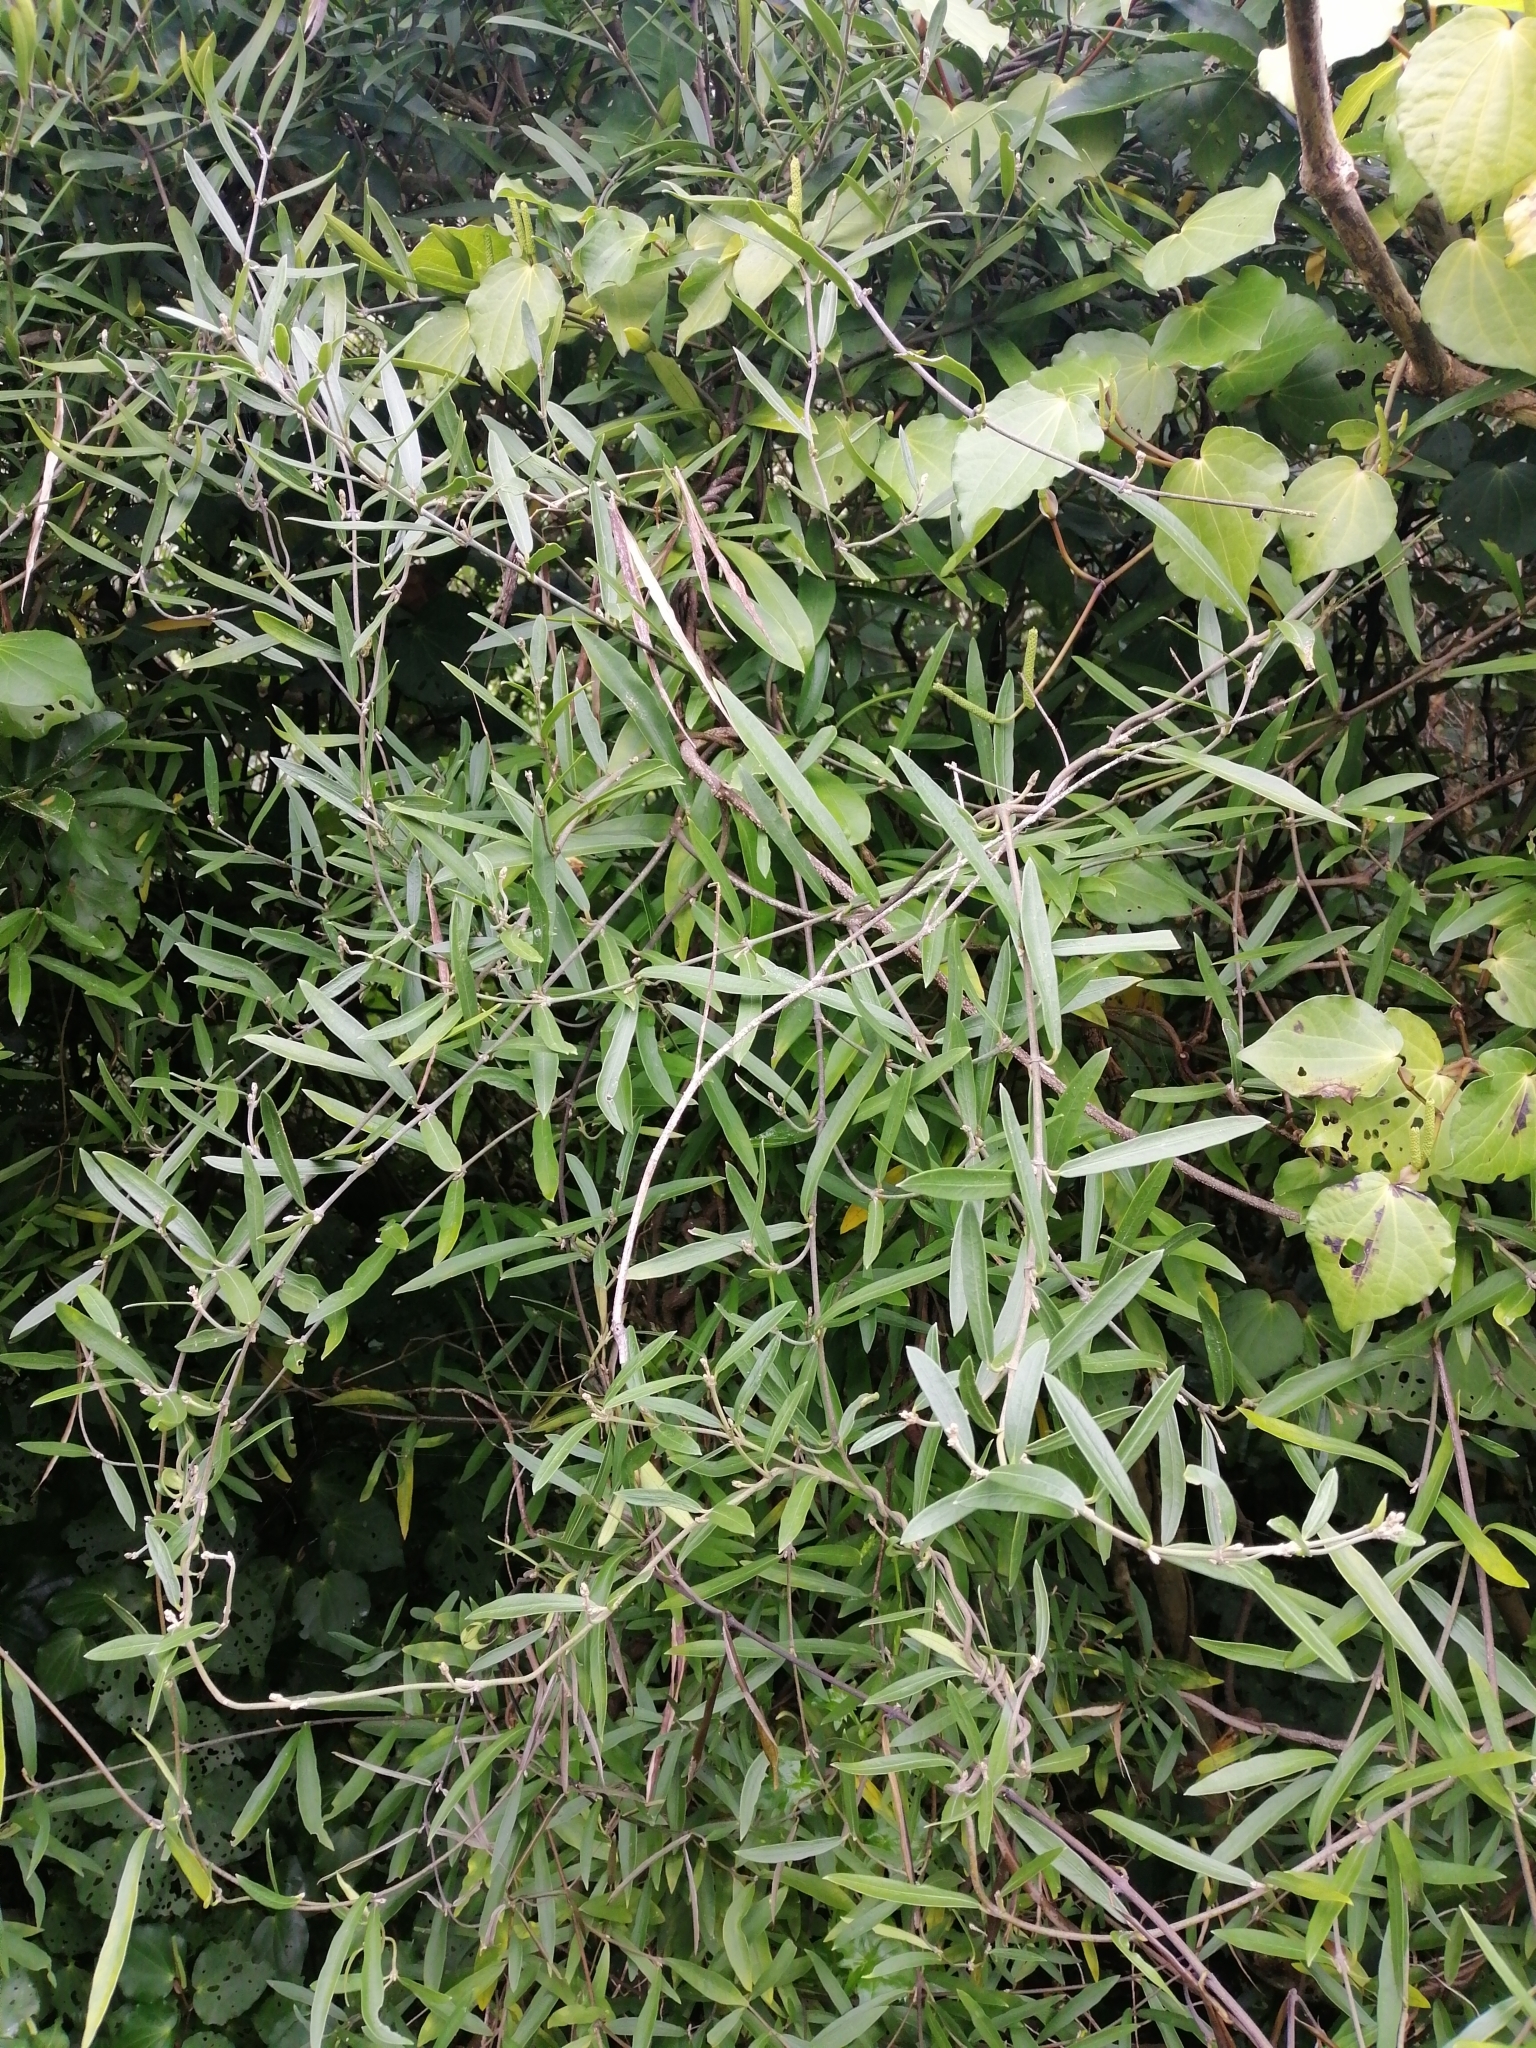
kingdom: Plantae
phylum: Tracheophyta
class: Magnoliopsida
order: Gentianales
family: Apocynaceae
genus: Parsonsia
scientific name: Parsonsia heterophylla
